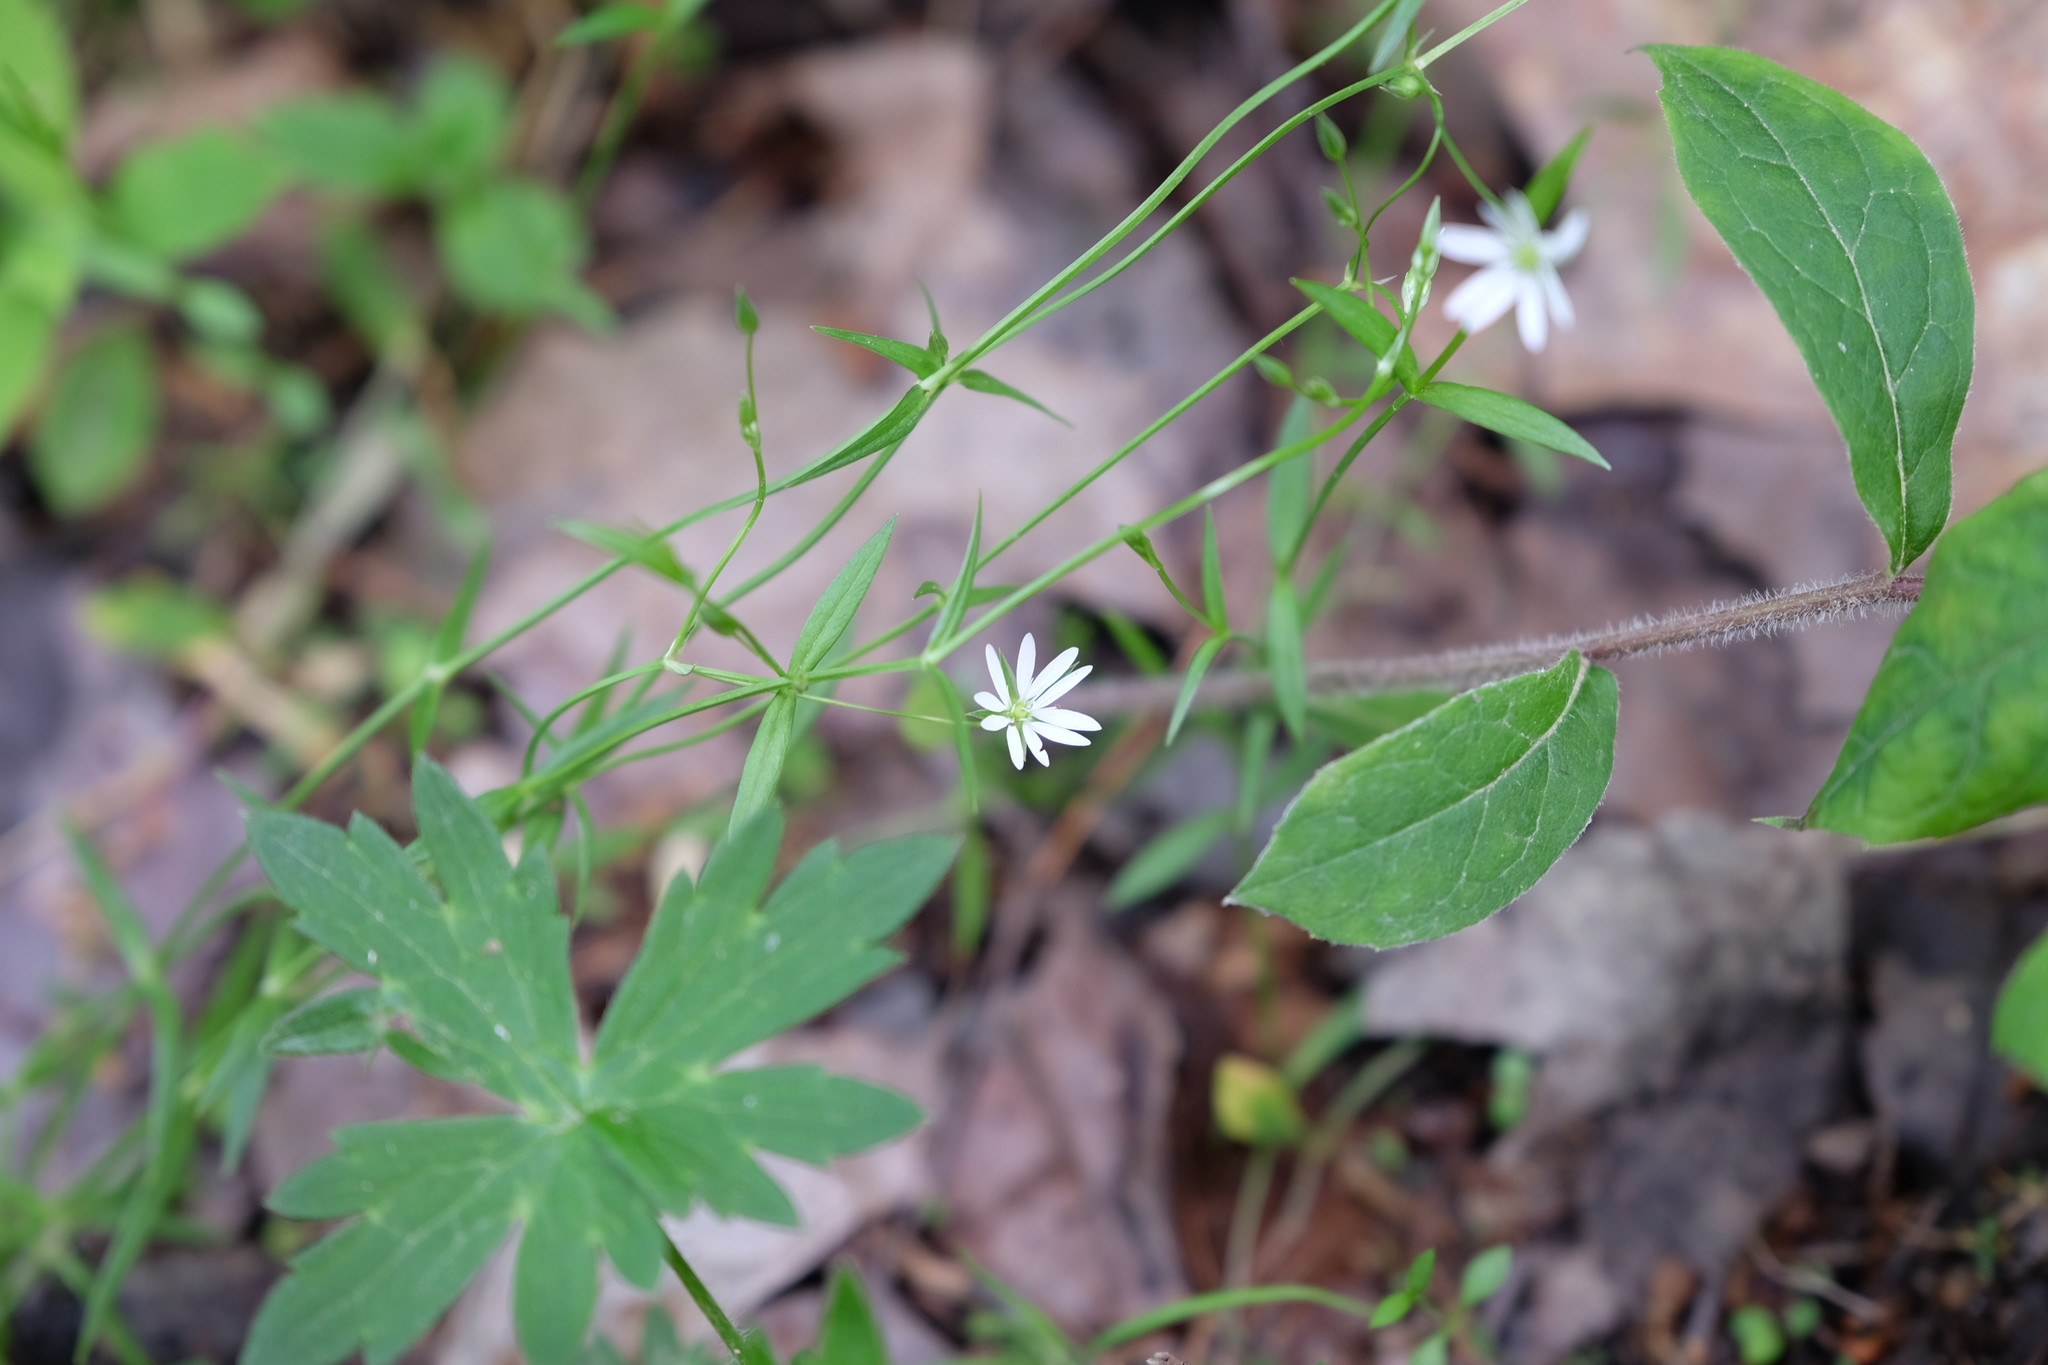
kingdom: Plantae
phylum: Tracheophyta
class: Magnoliopsida
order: Caryophyllales
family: Caryophyllaceae
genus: Stellaria
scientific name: Stellaria graminea
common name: Grass-like starwort
